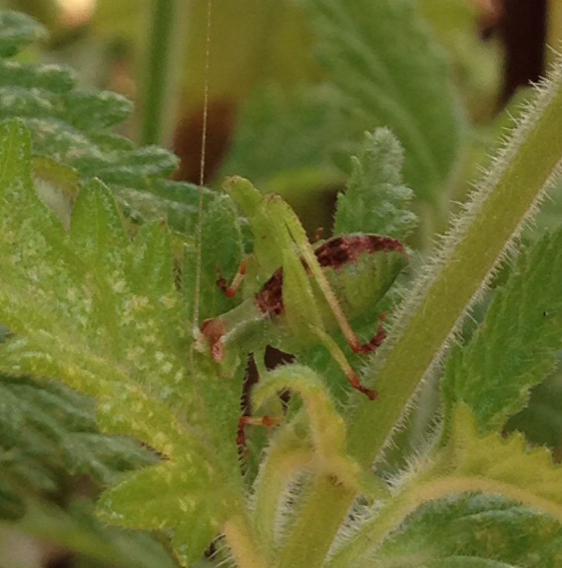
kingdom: Animalia
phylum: Arthropoda
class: Insecta
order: Orthoptera
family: Tettigoniidae
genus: Montezumina
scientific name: Montezumina modesta
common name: Modest katydid
